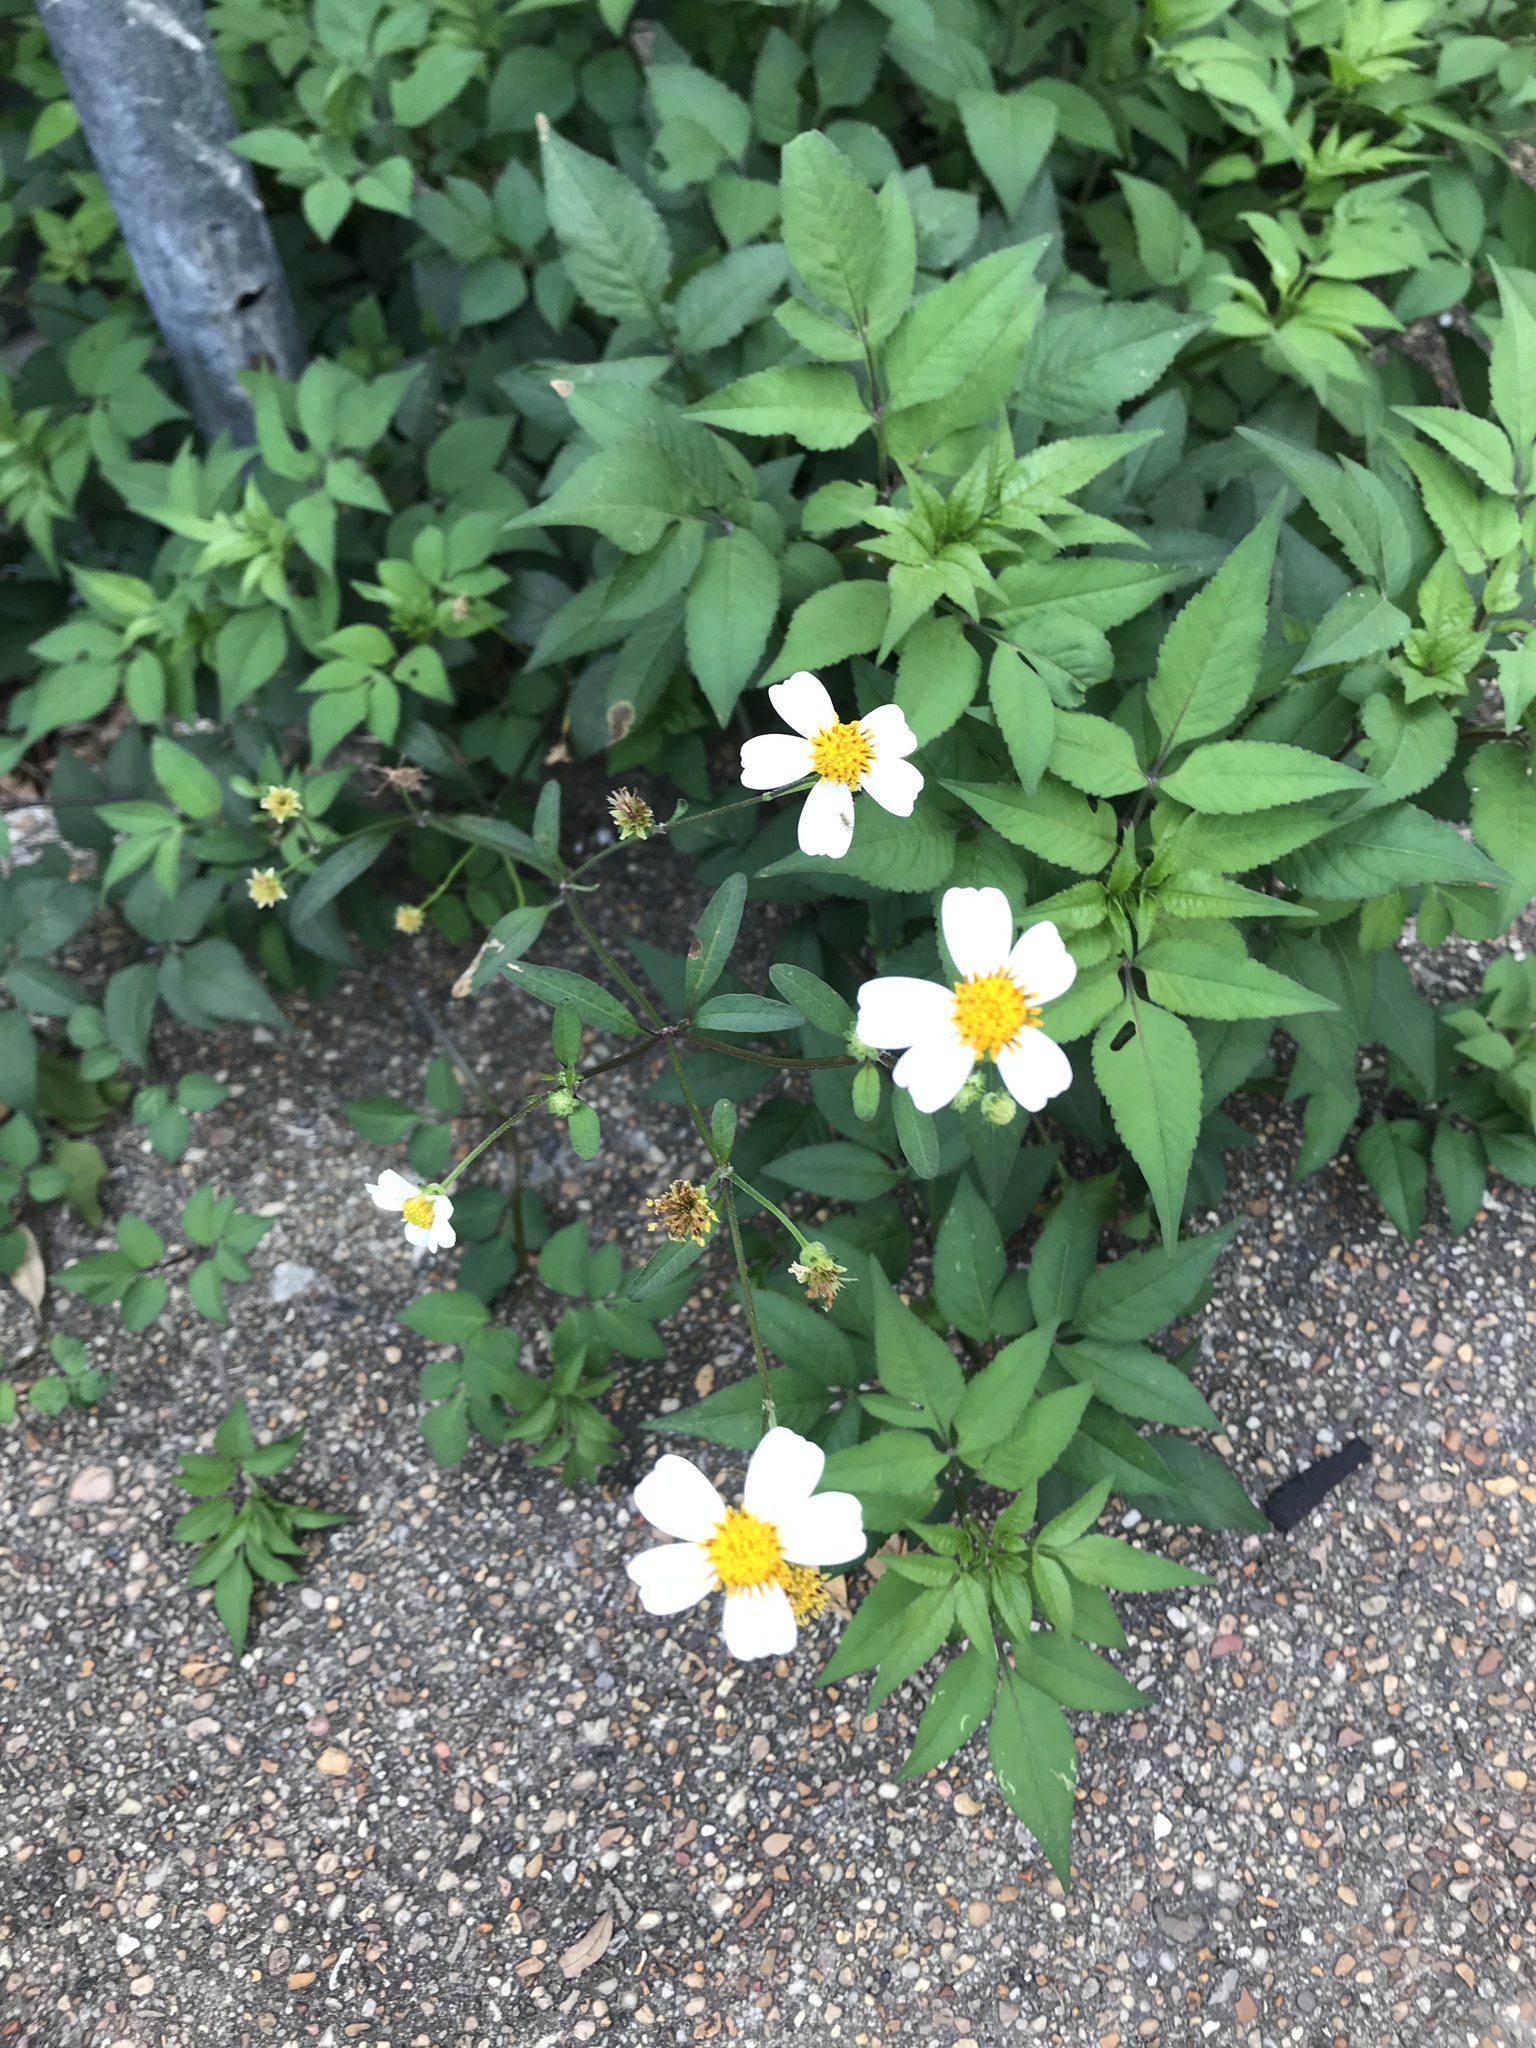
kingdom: Plantae
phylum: Tracheophyta
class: Magnoliopsida
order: Asterales
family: Asteraceae
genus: Bidens
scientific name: Bidens alba
